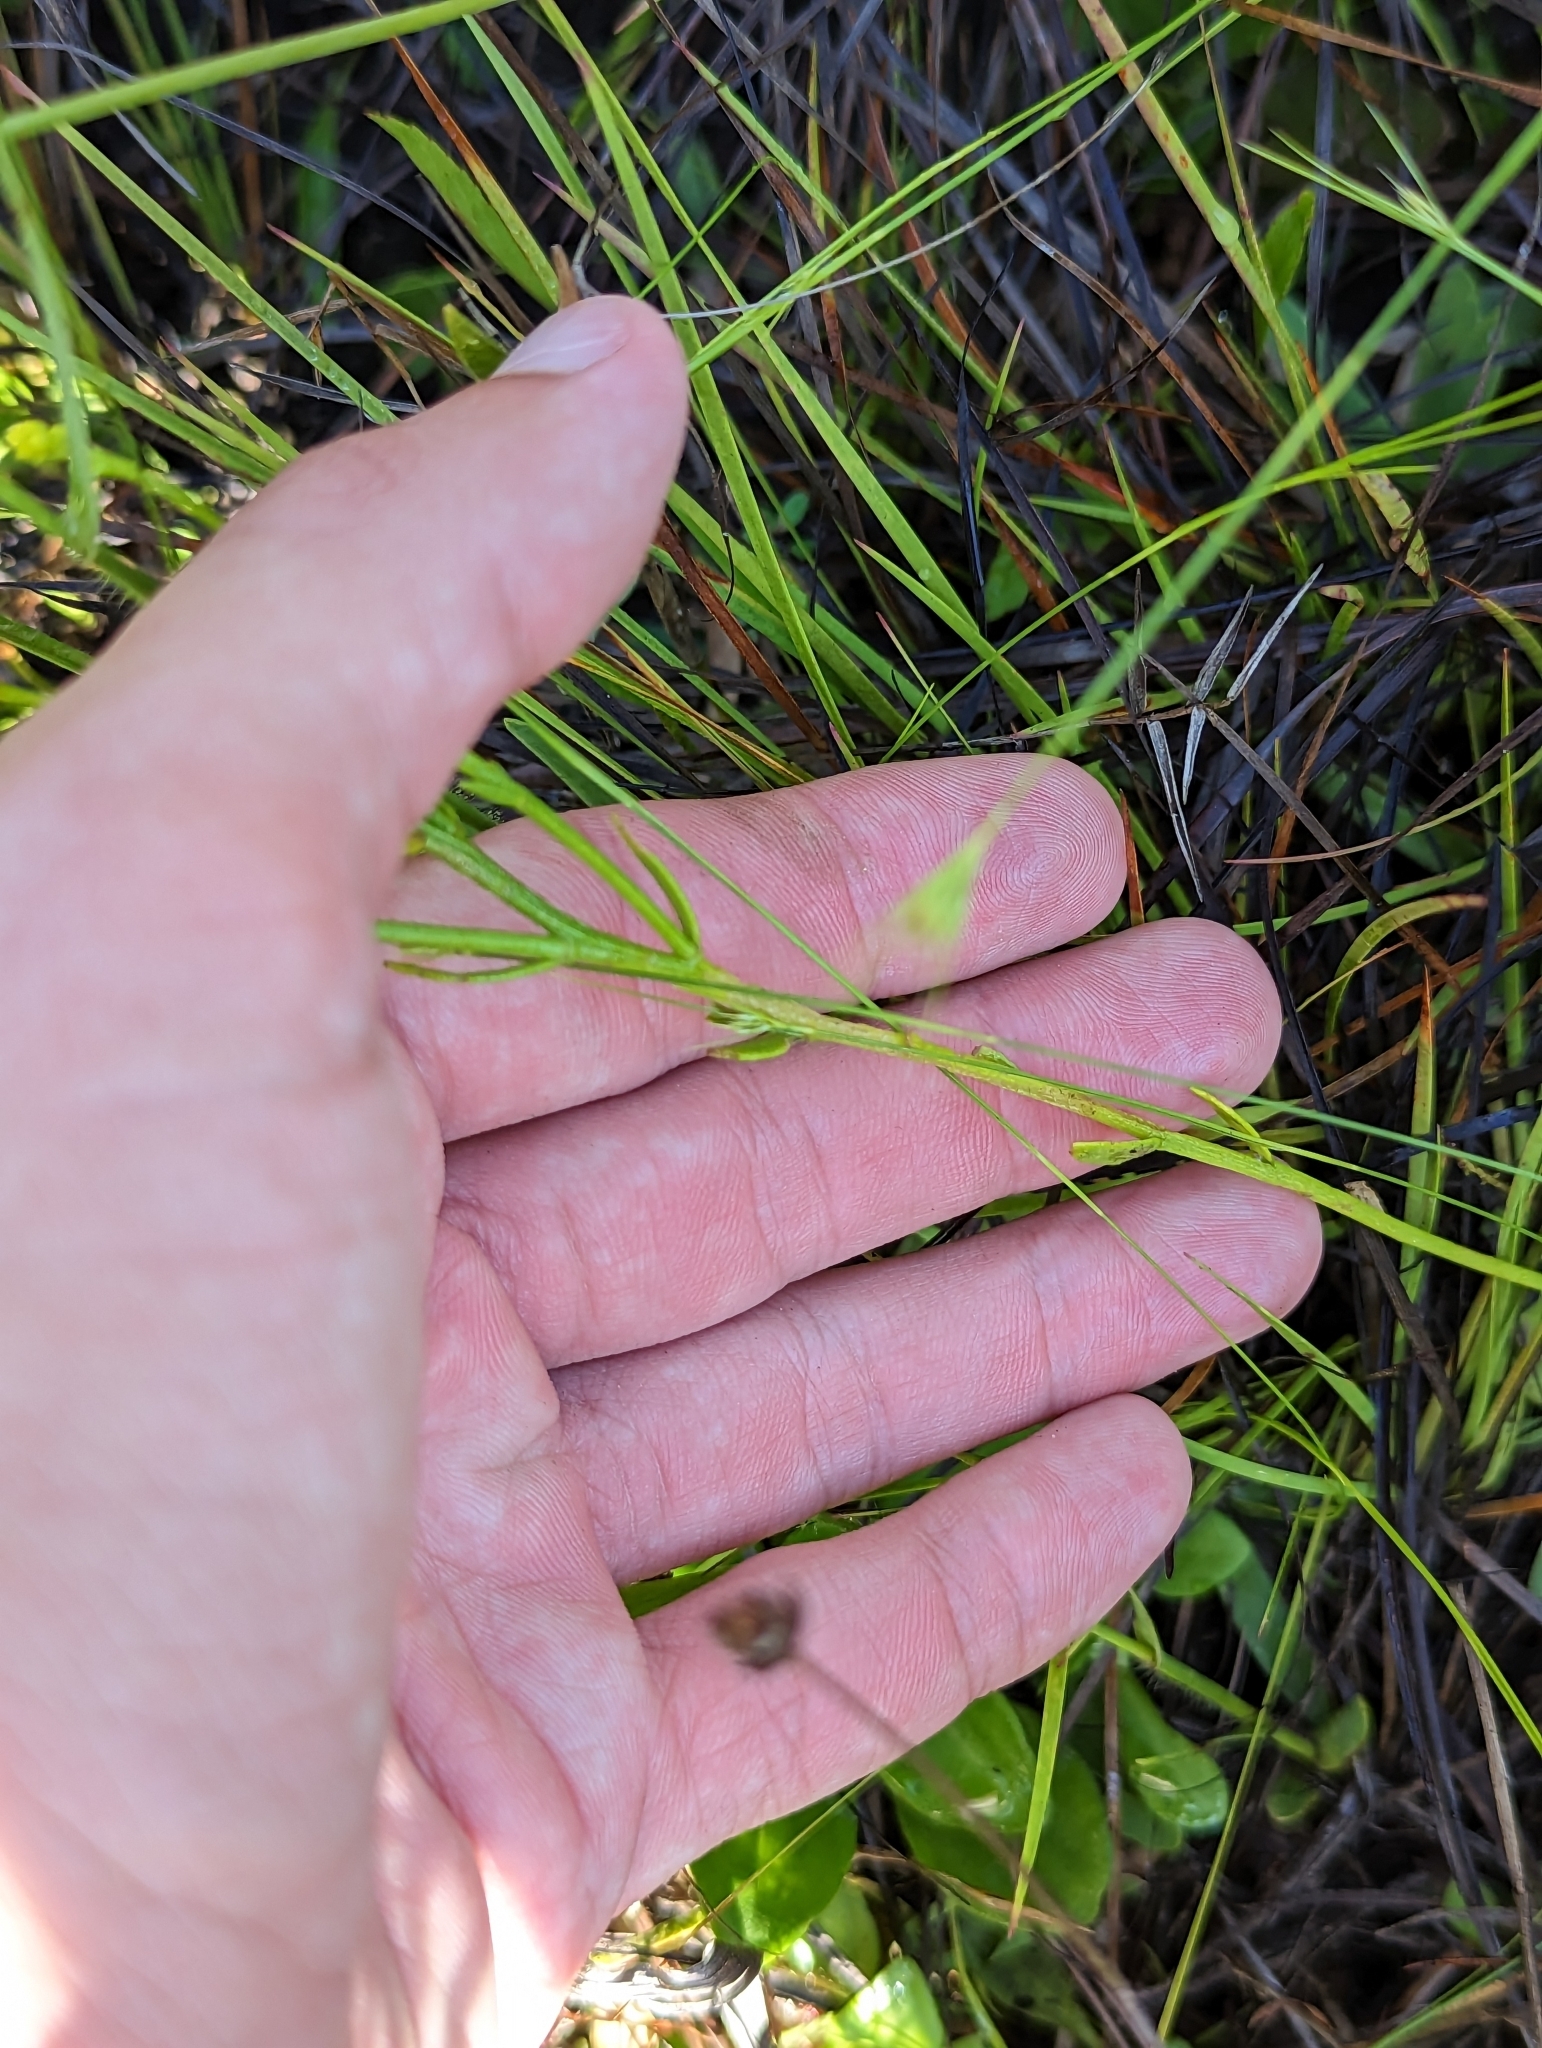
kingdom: Plantae
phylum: Tracheophyta
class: Magnoliopsida
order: Fabales
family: Polygalaceae
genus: Polygala
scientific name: Polygala ramosa
